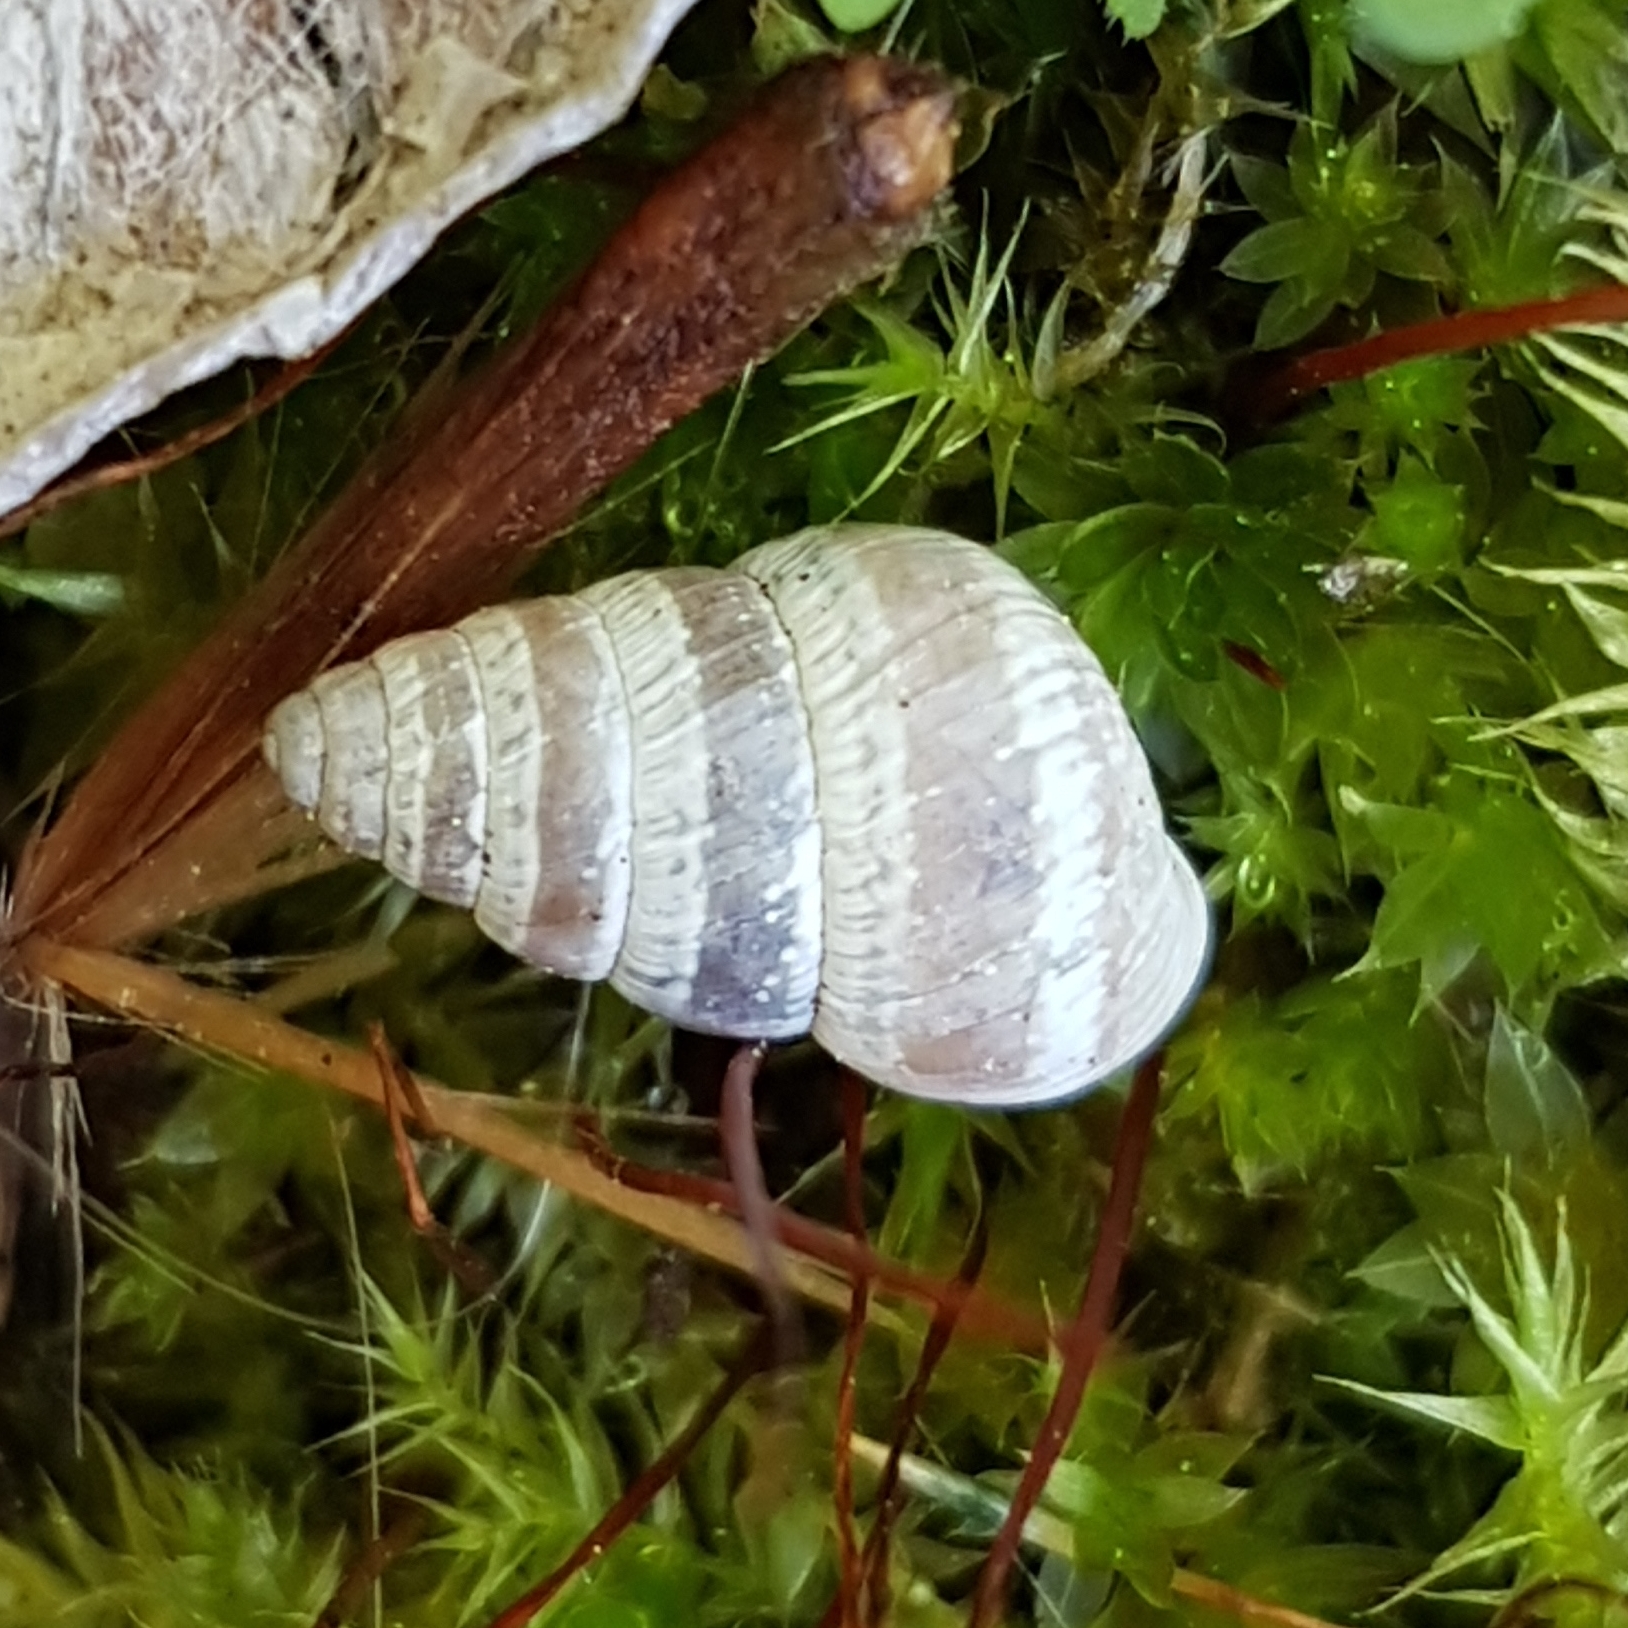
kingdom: Animalia
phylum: Mollusca
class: Gastropoda
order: Stylommatophora
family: Geomitridae
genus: Cochlicella
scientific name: Cochlicella barbara
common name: Potbellied helicellid
